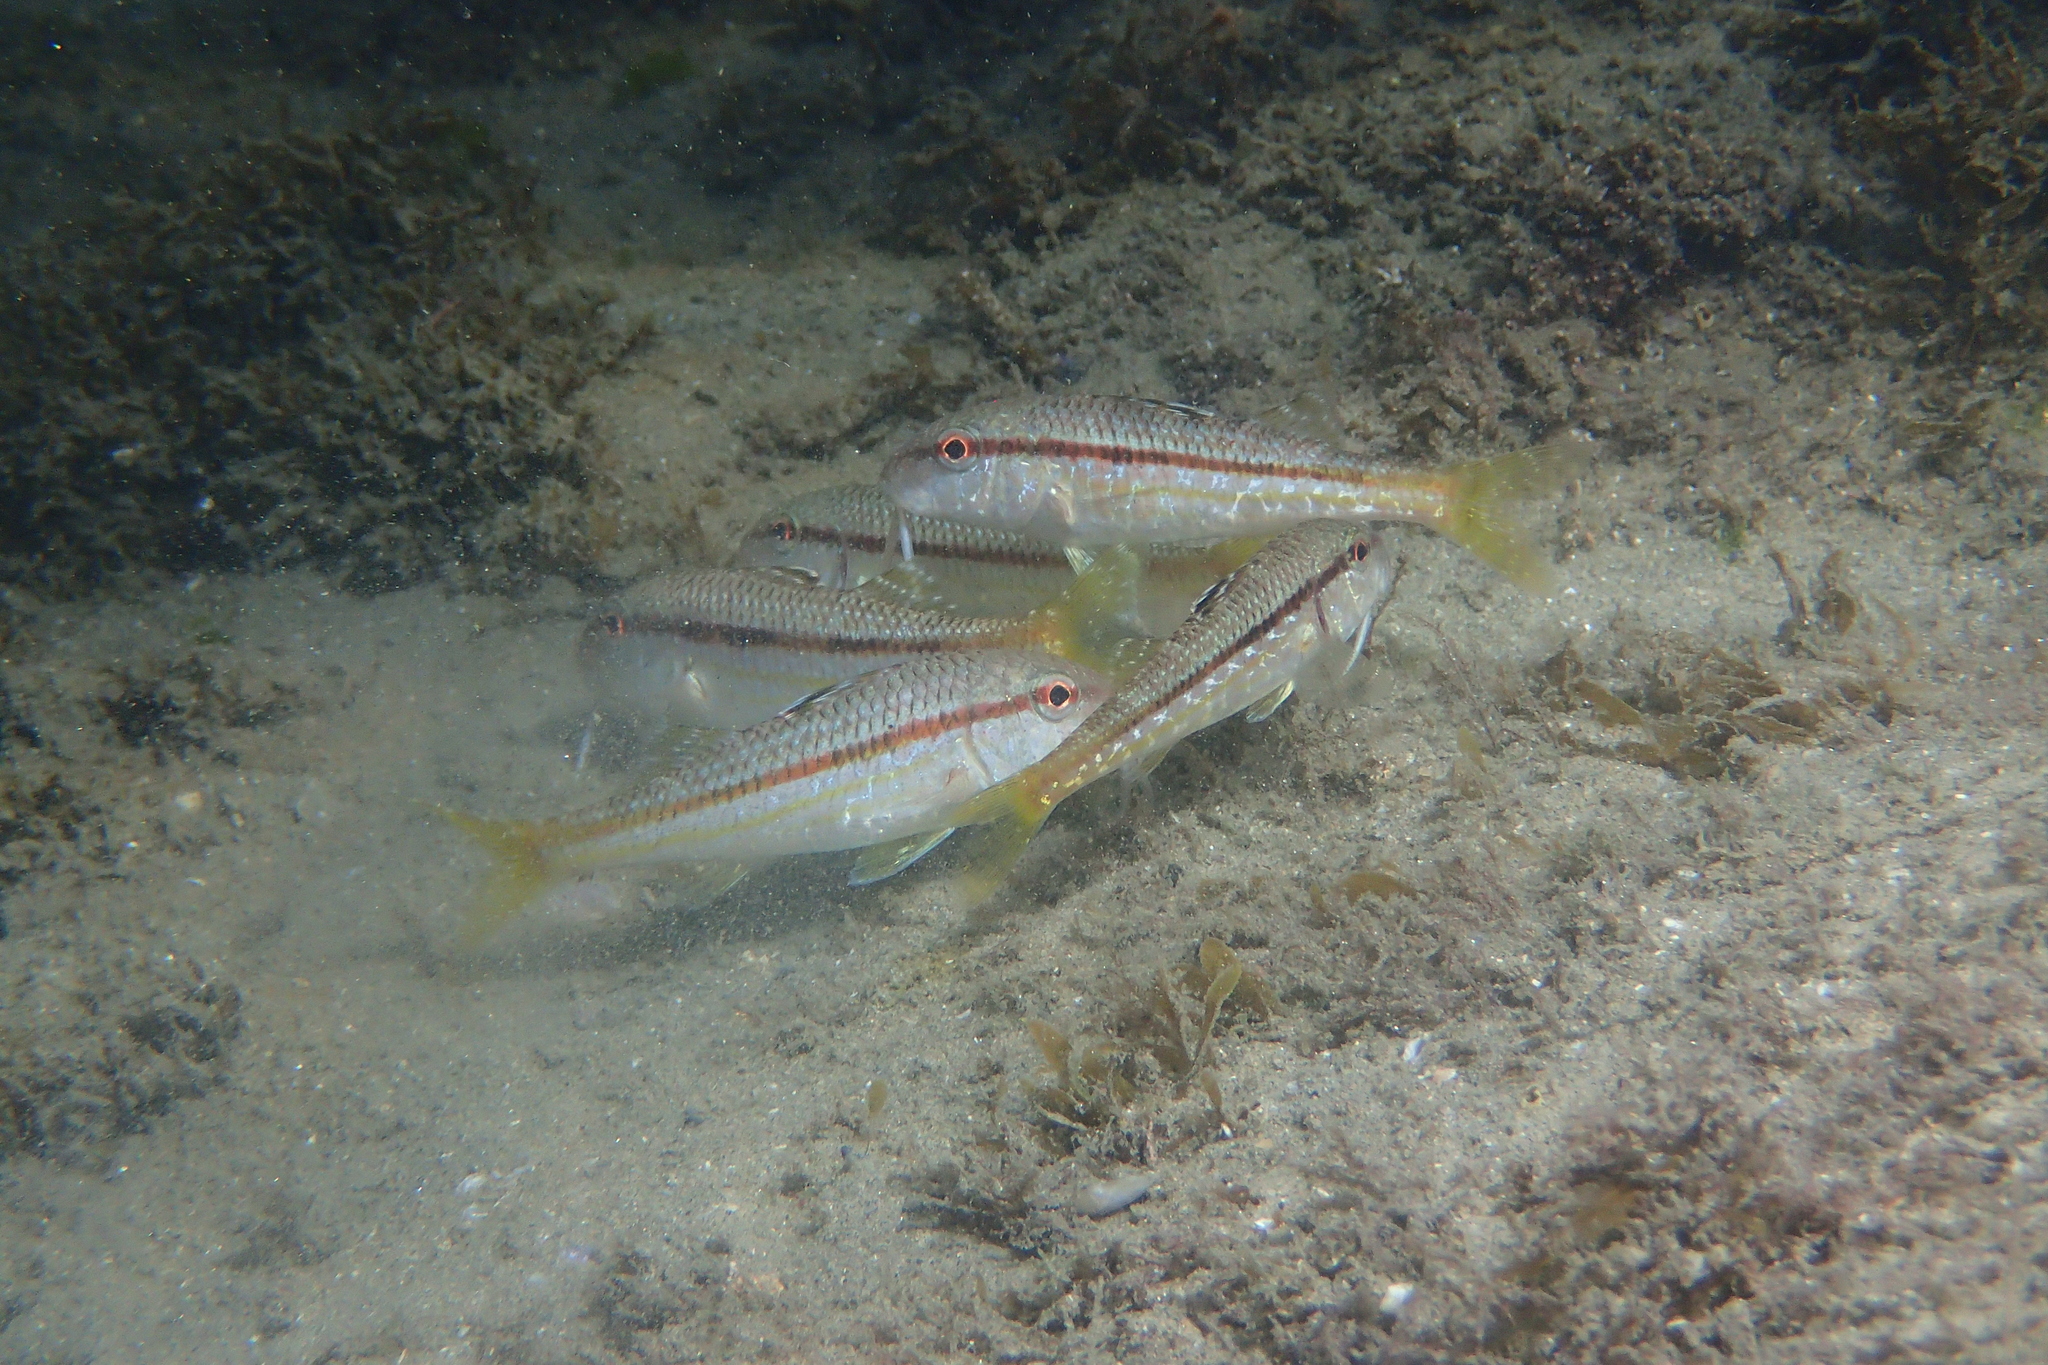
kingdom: Animalia
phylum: Chordata
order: Perciformes
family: Mullidae
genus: Mullus
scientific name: Mullus surmuletus
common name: Red mullet
